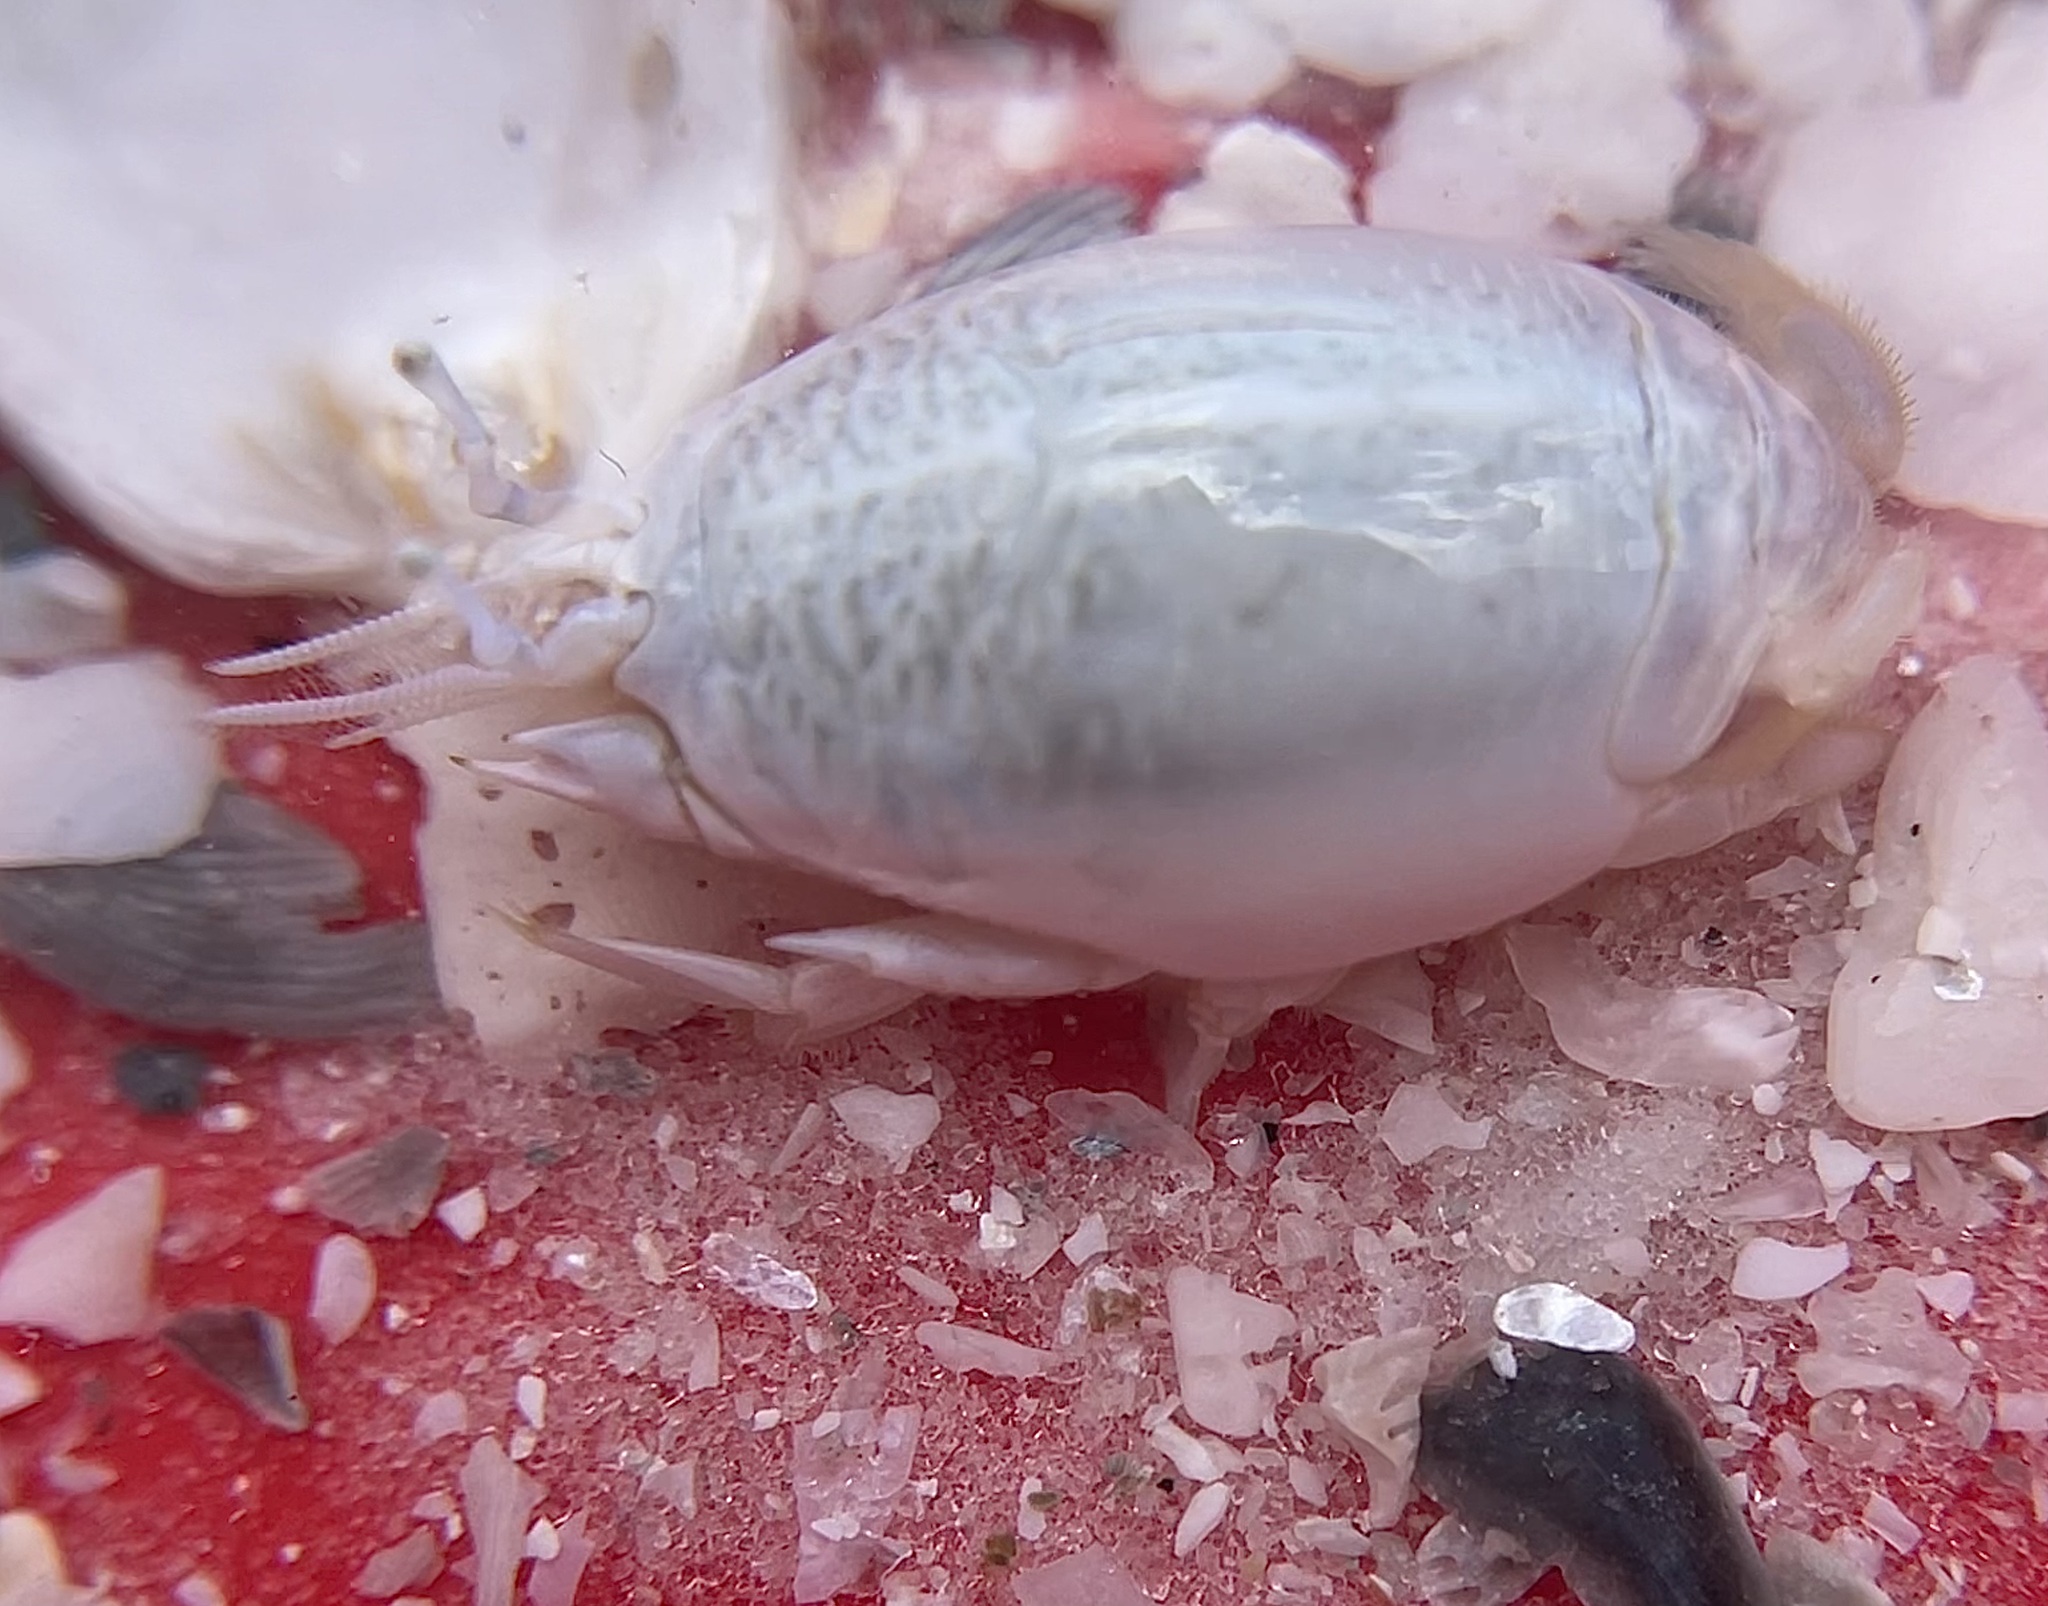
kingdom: Animalia
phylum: Arthropoda
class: Malacostraca
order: Decapoda
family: Hippidae
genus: Emerita
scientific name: Emerita talpoida
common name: Atlantic sand crab
